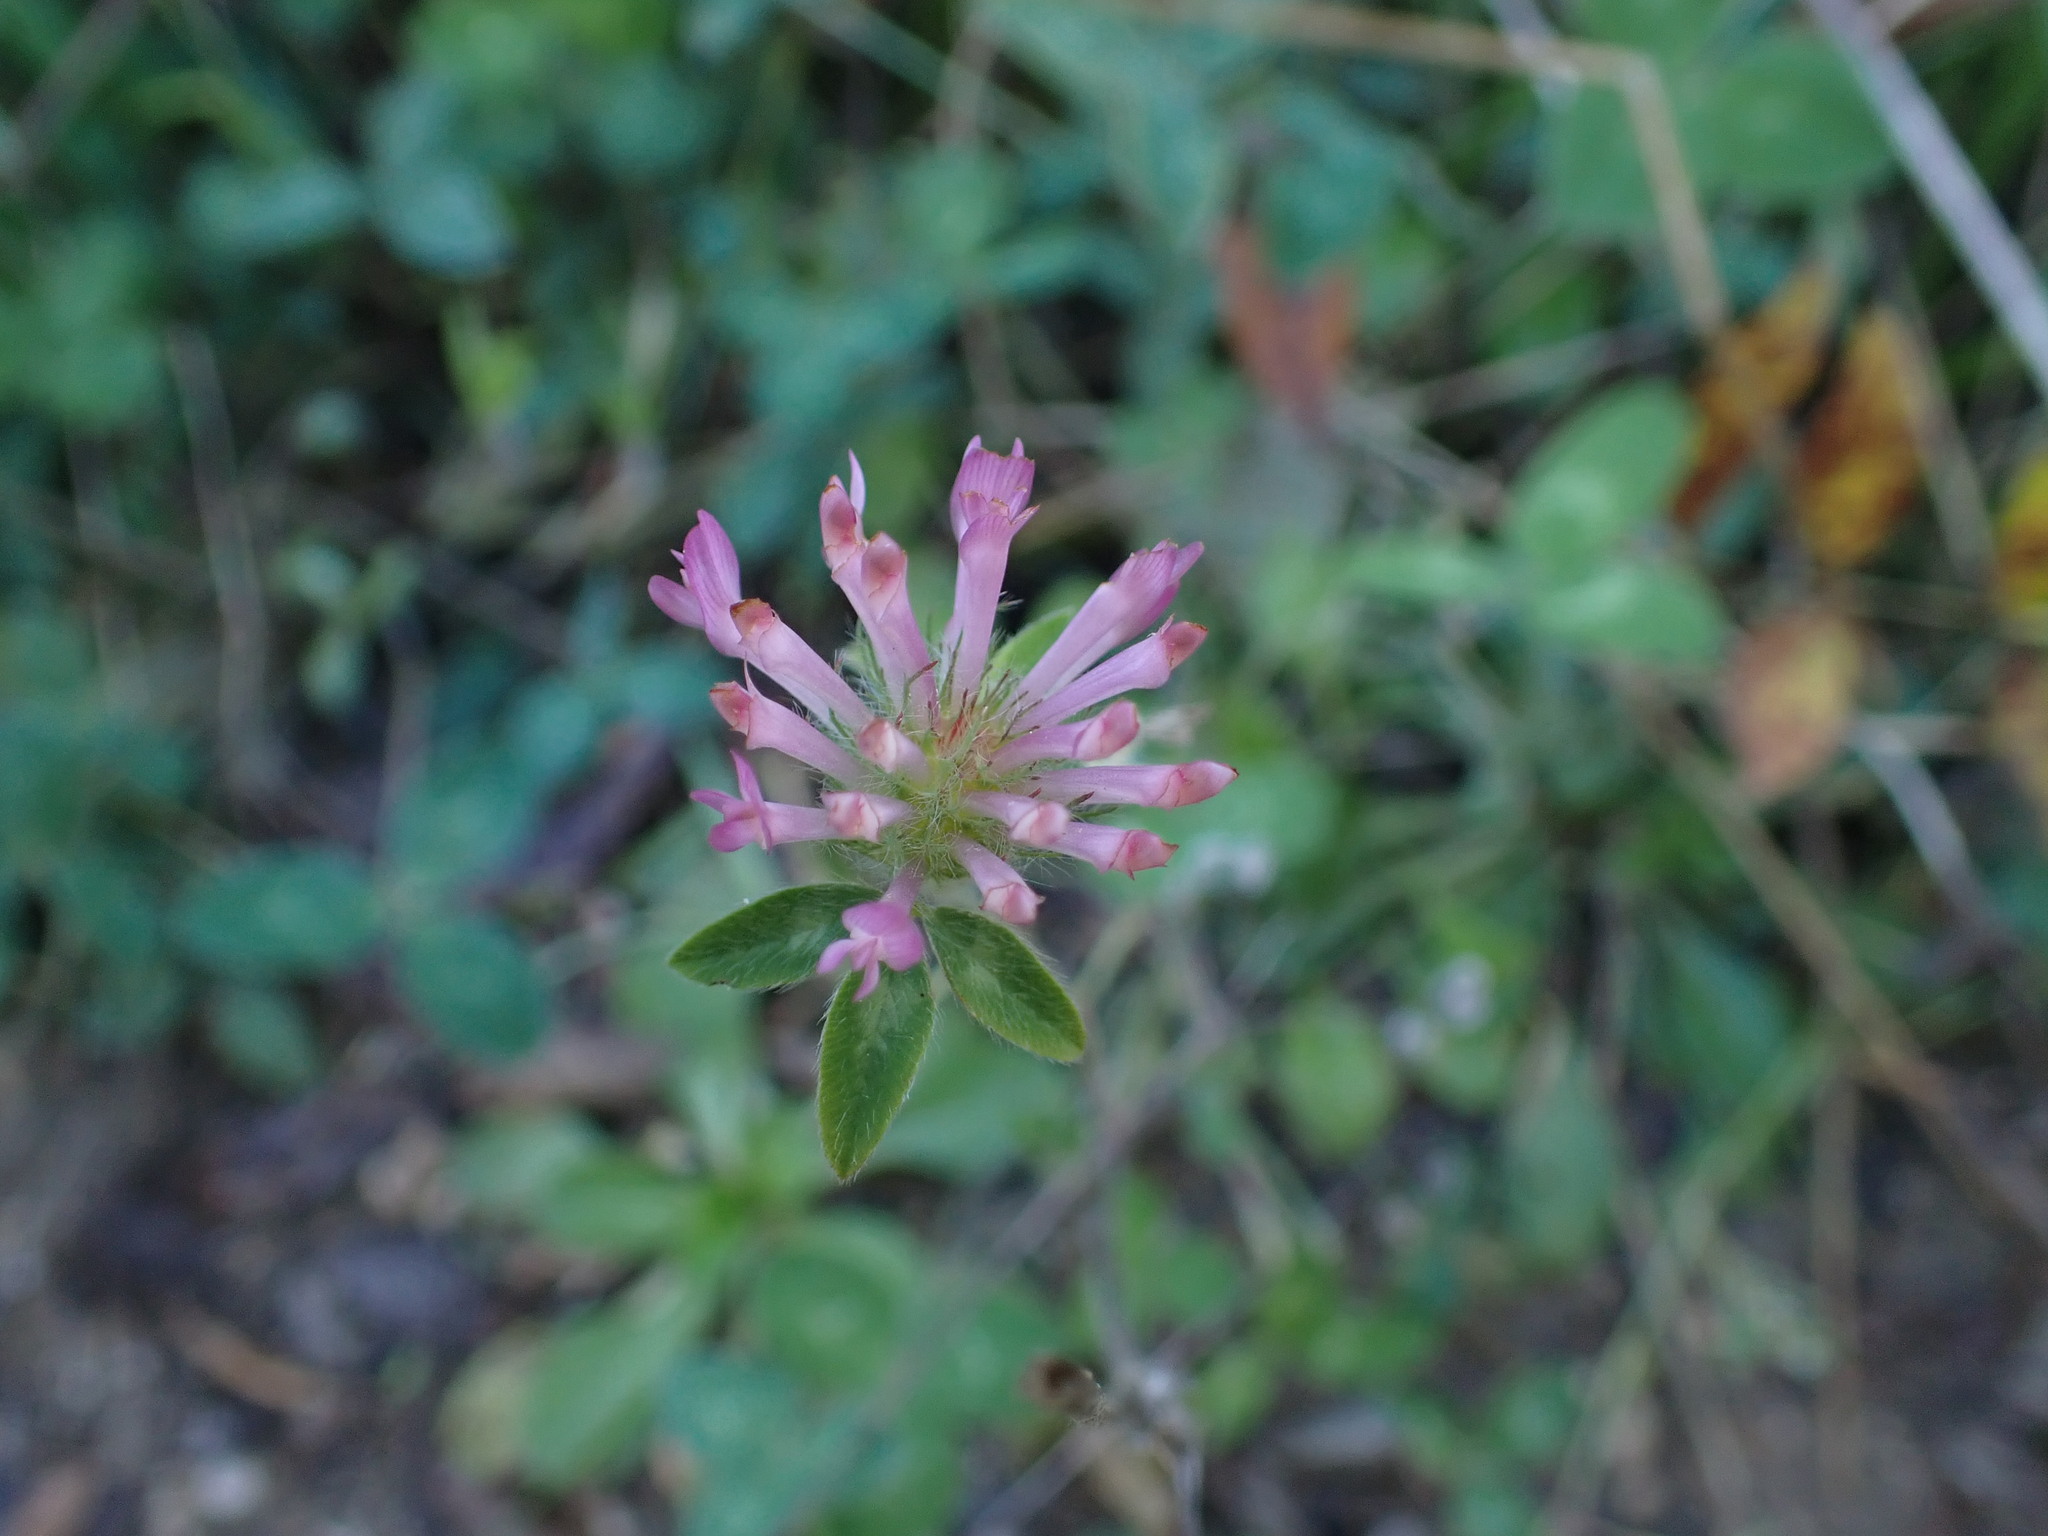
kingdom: Plantae
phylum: Tracheophyta
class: Magnoliopsida
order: Fabales
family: Fabaceae
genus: Trifolium
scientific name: Trifolium pratense
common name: Red clover
